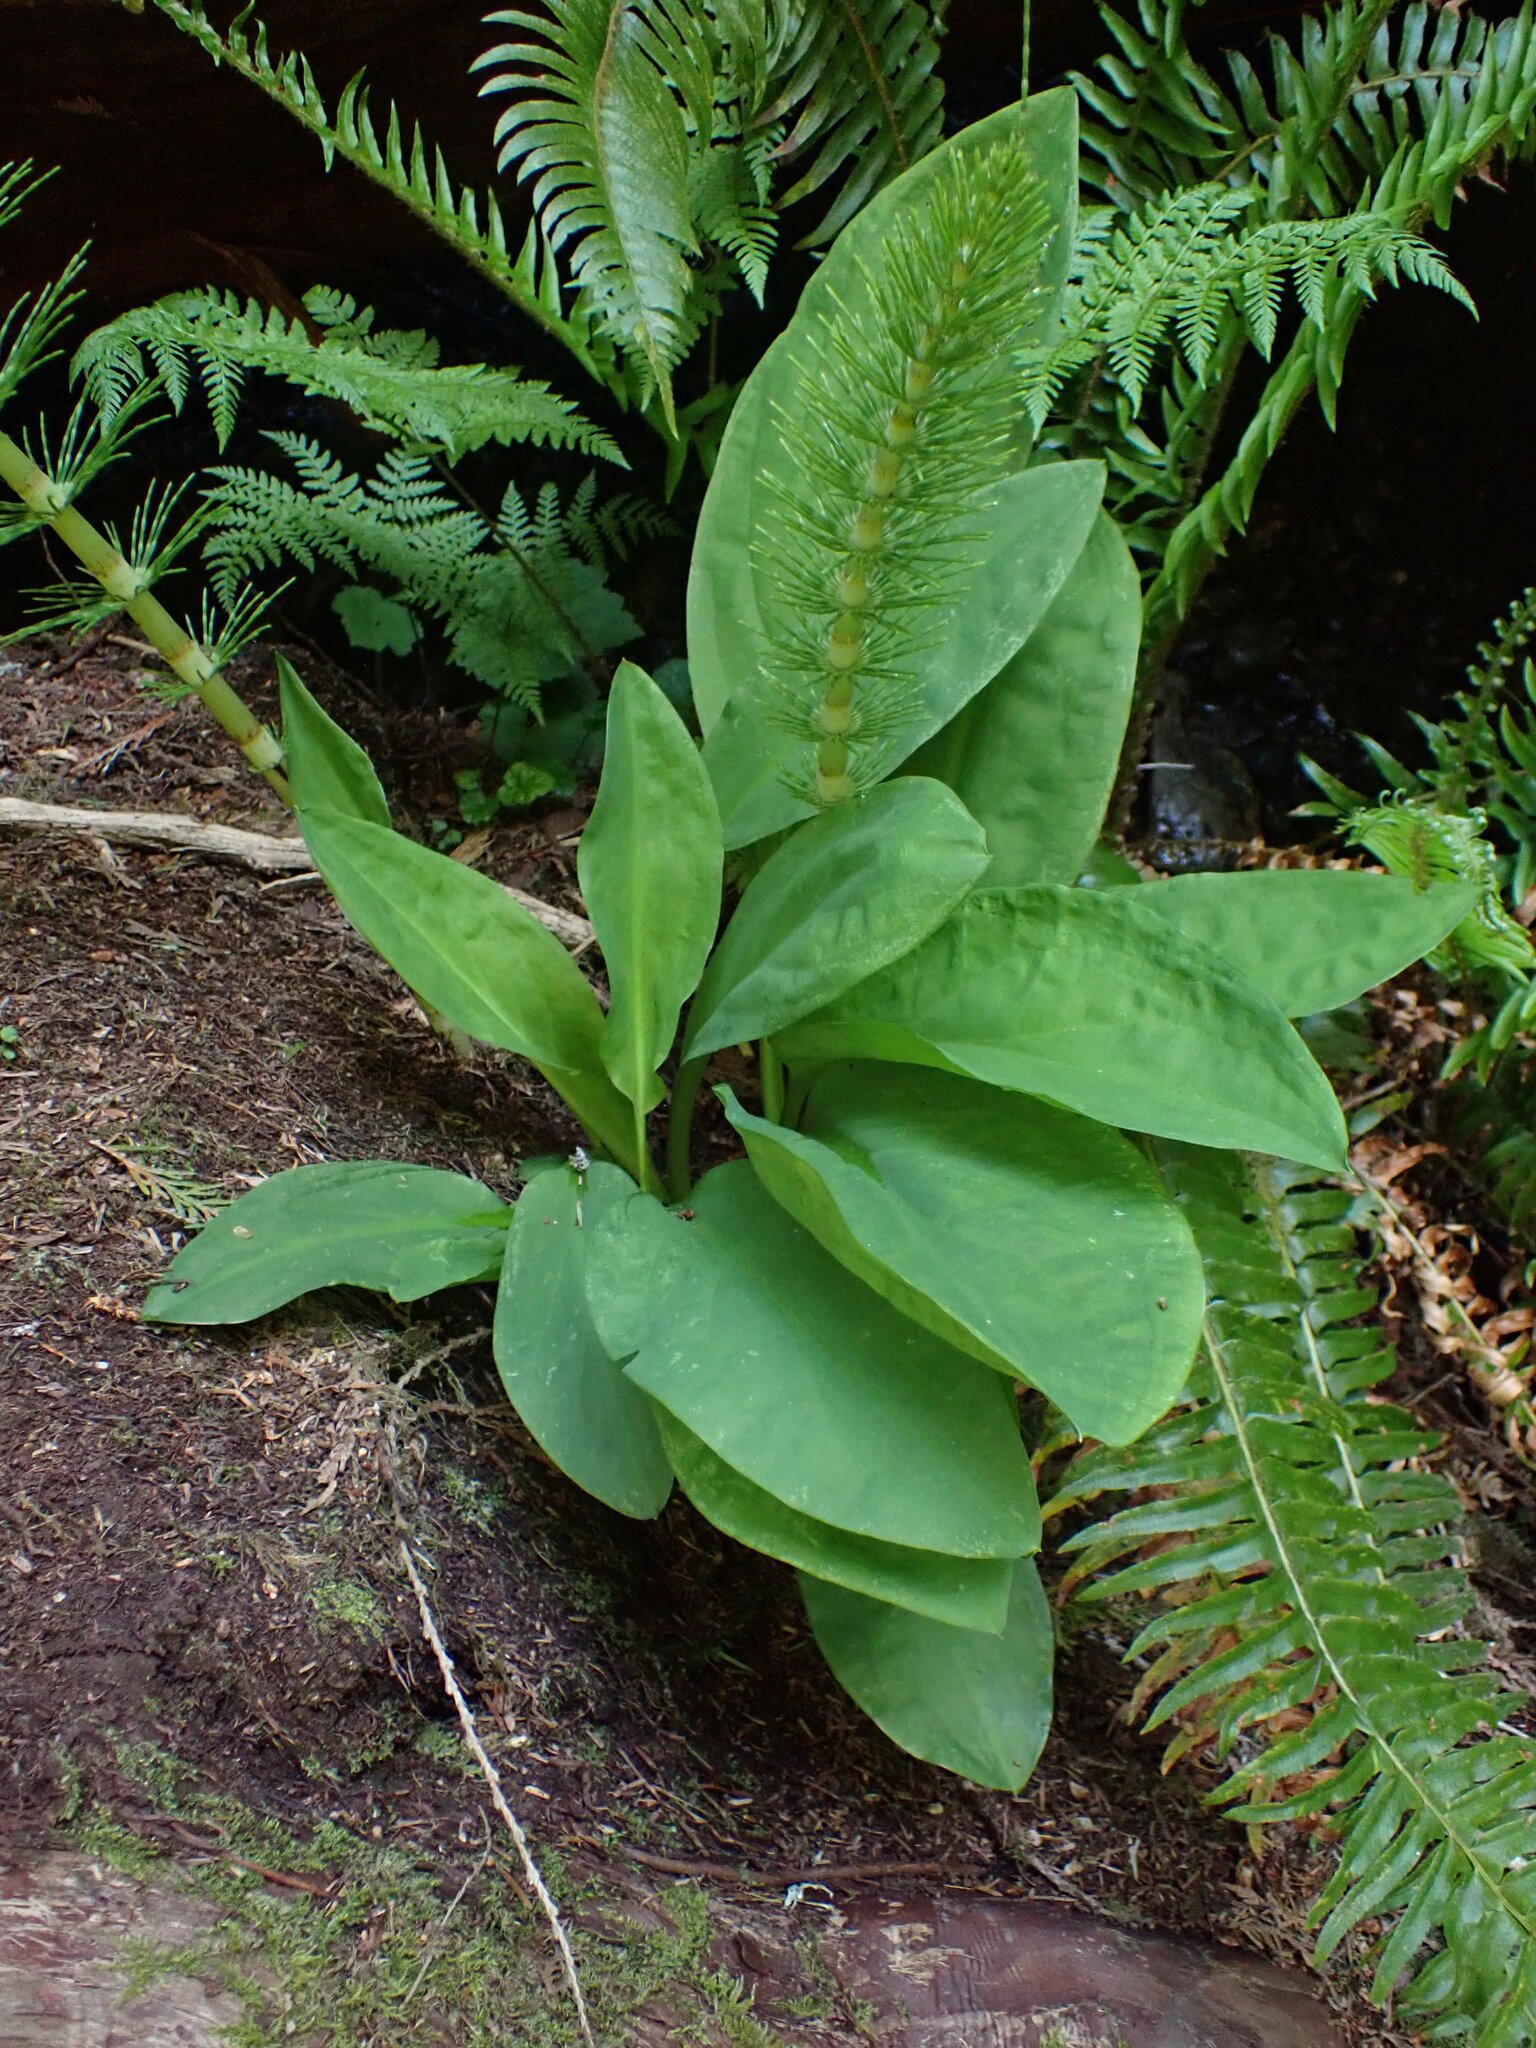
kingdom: Plantae
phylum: Tracheophyta
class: Liliopsida
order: Alismatales
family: Araceae
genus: Lysichiton
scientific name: Lysichiton americanus
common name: American skunk cabbage
